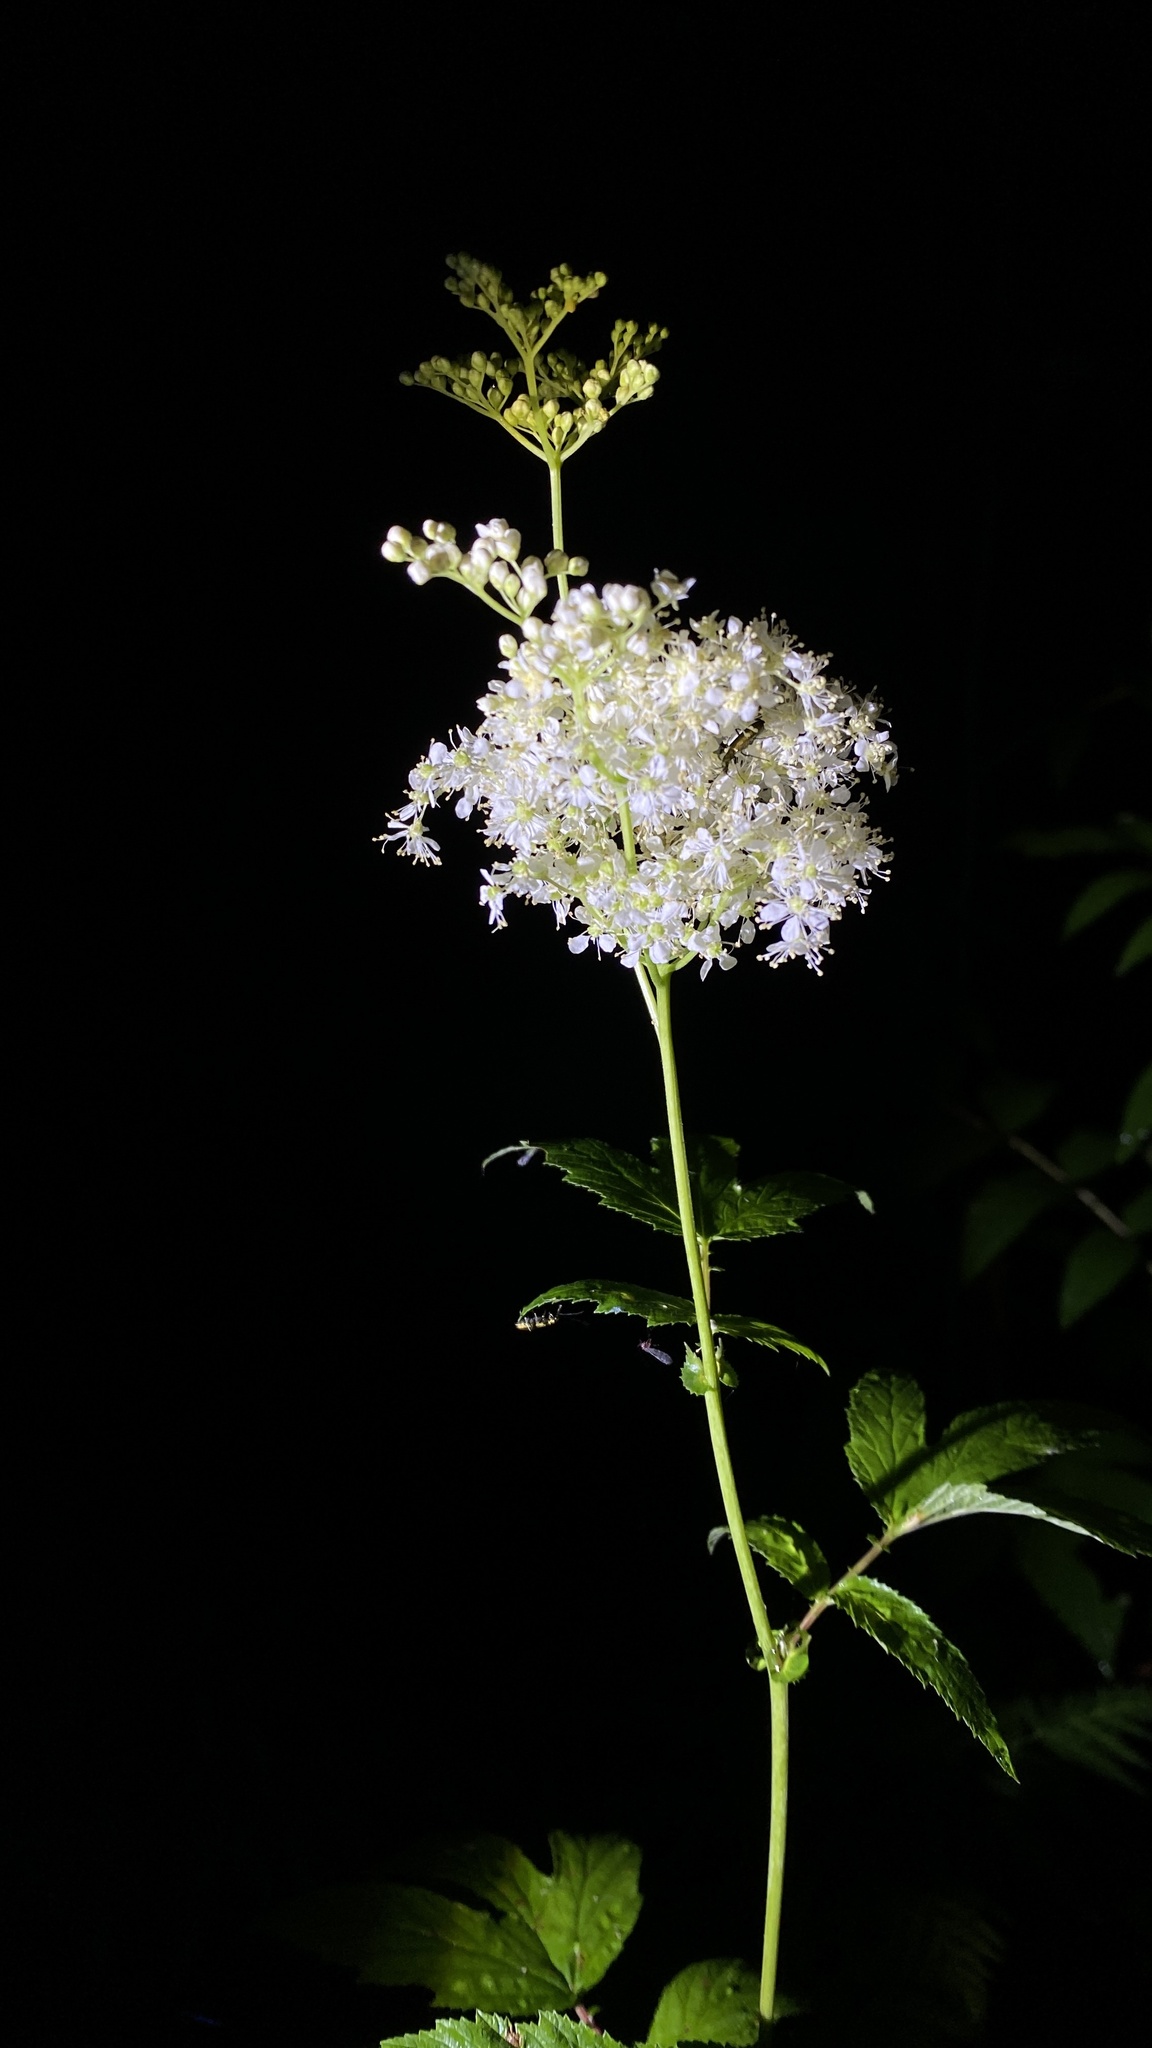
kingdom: Plantae
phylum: Tracheophyta
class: Magnoliopsida
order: Rosales
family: Rosaceae
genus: Filipendula
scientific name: Filipendula ulmaria
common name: Meadowsweet
